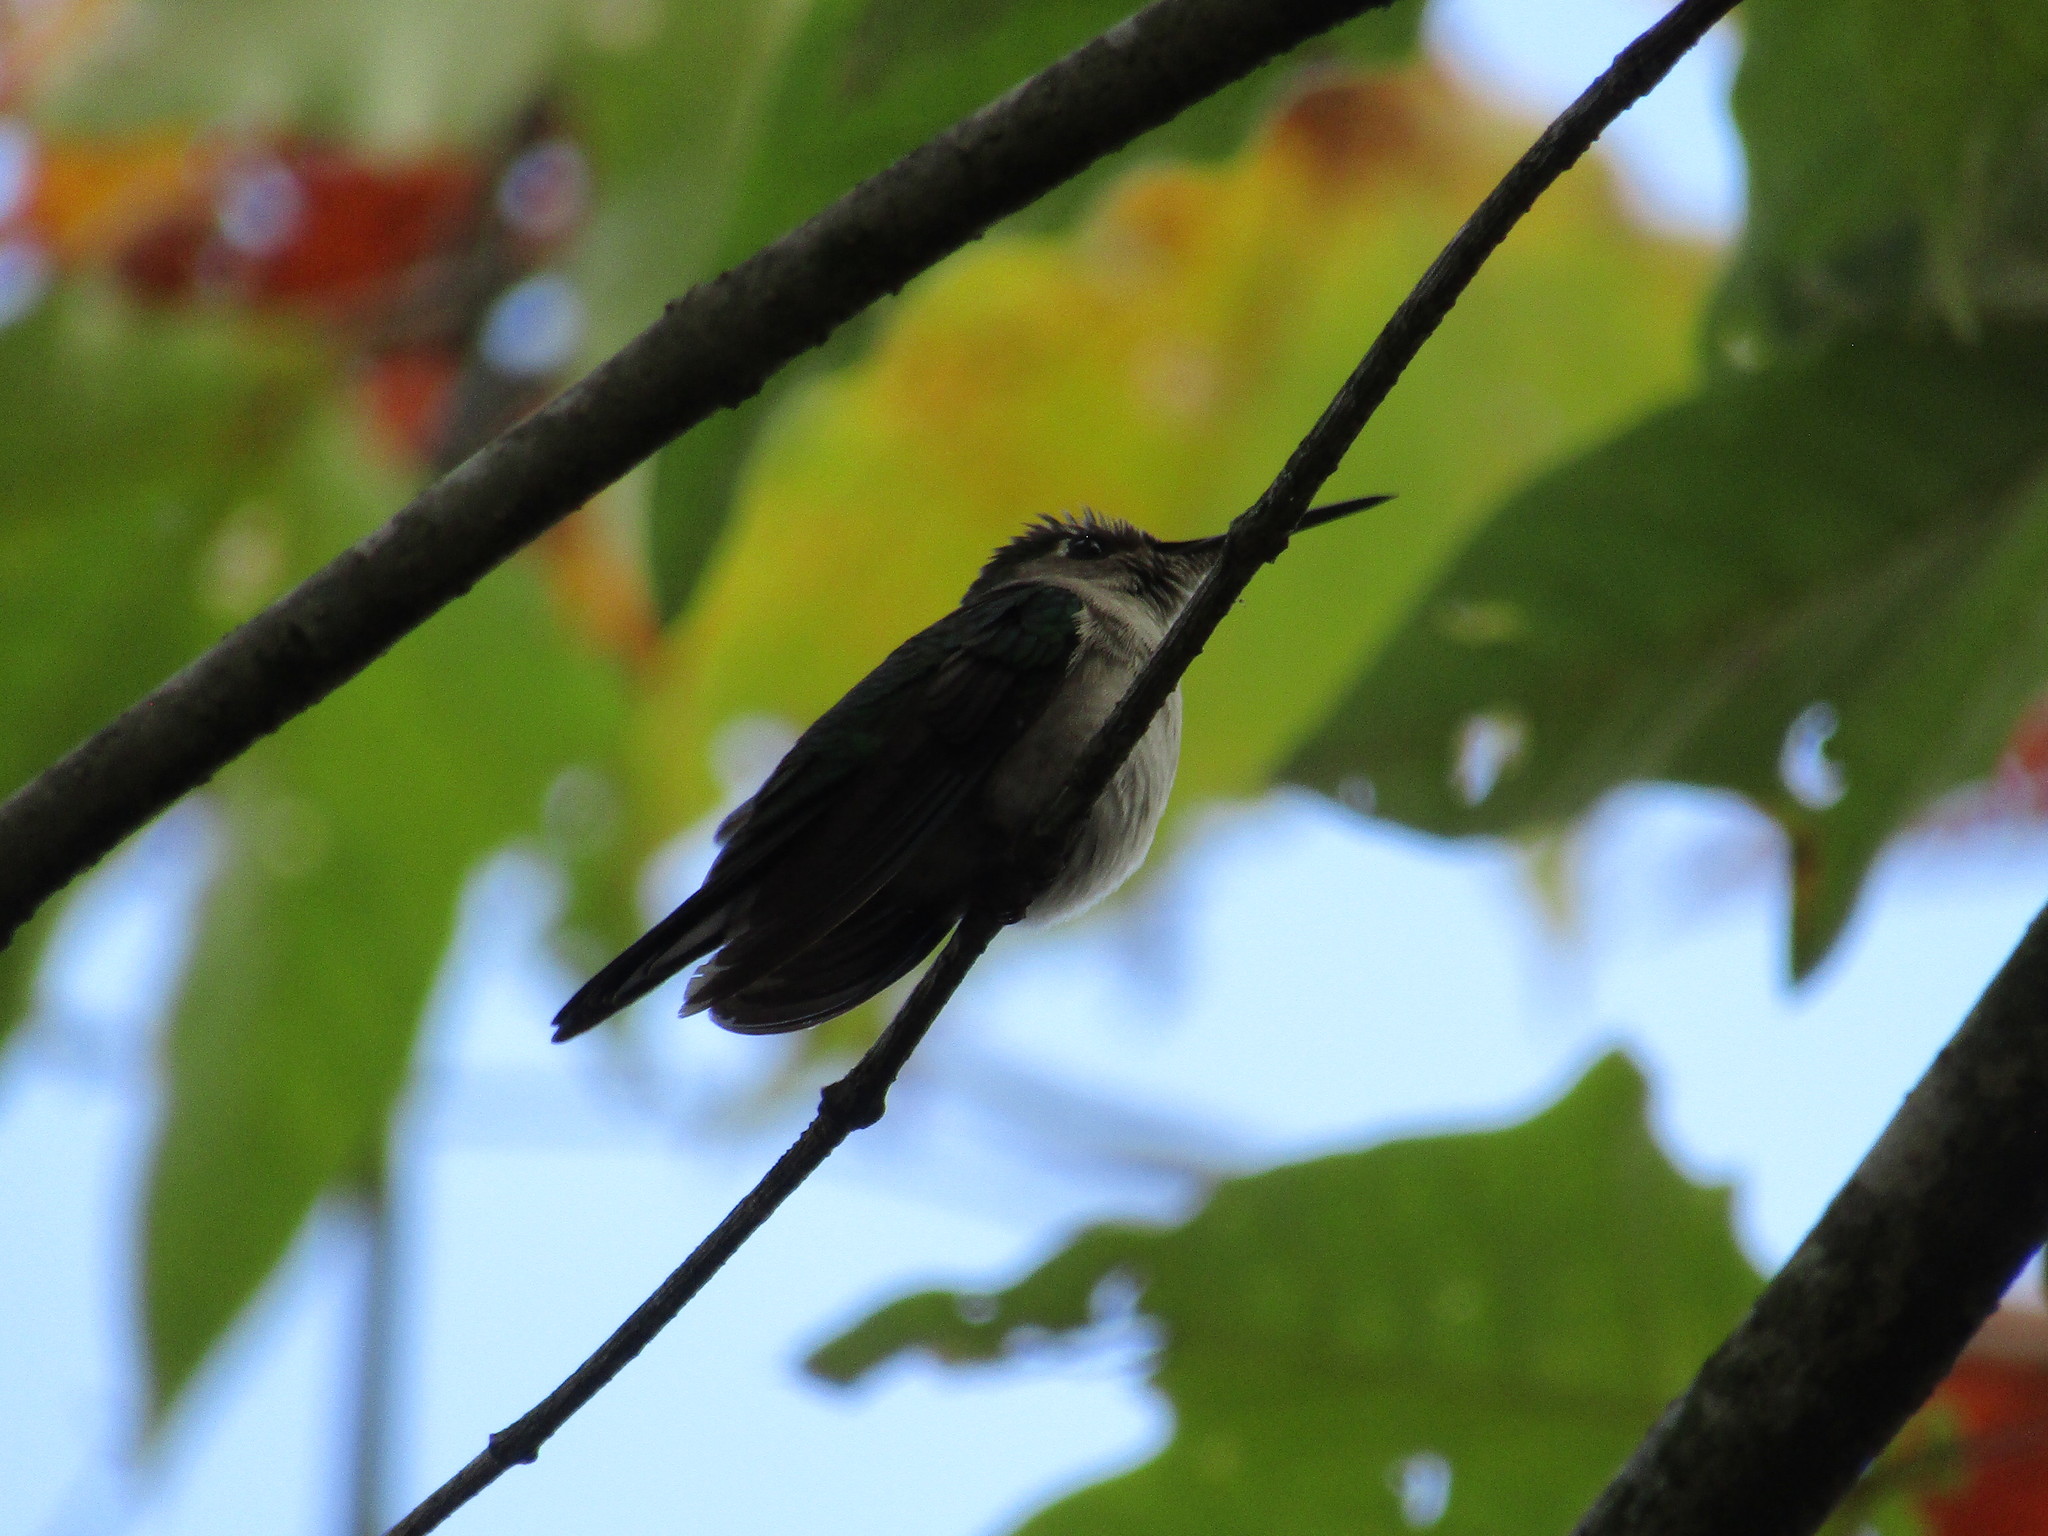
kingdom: Animalia
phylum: Chordata
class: Aves
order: Apodiformes
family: Trochilidae
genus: Pampa
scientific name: Pampa curvipennis
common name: Curve-winged sabrewing
